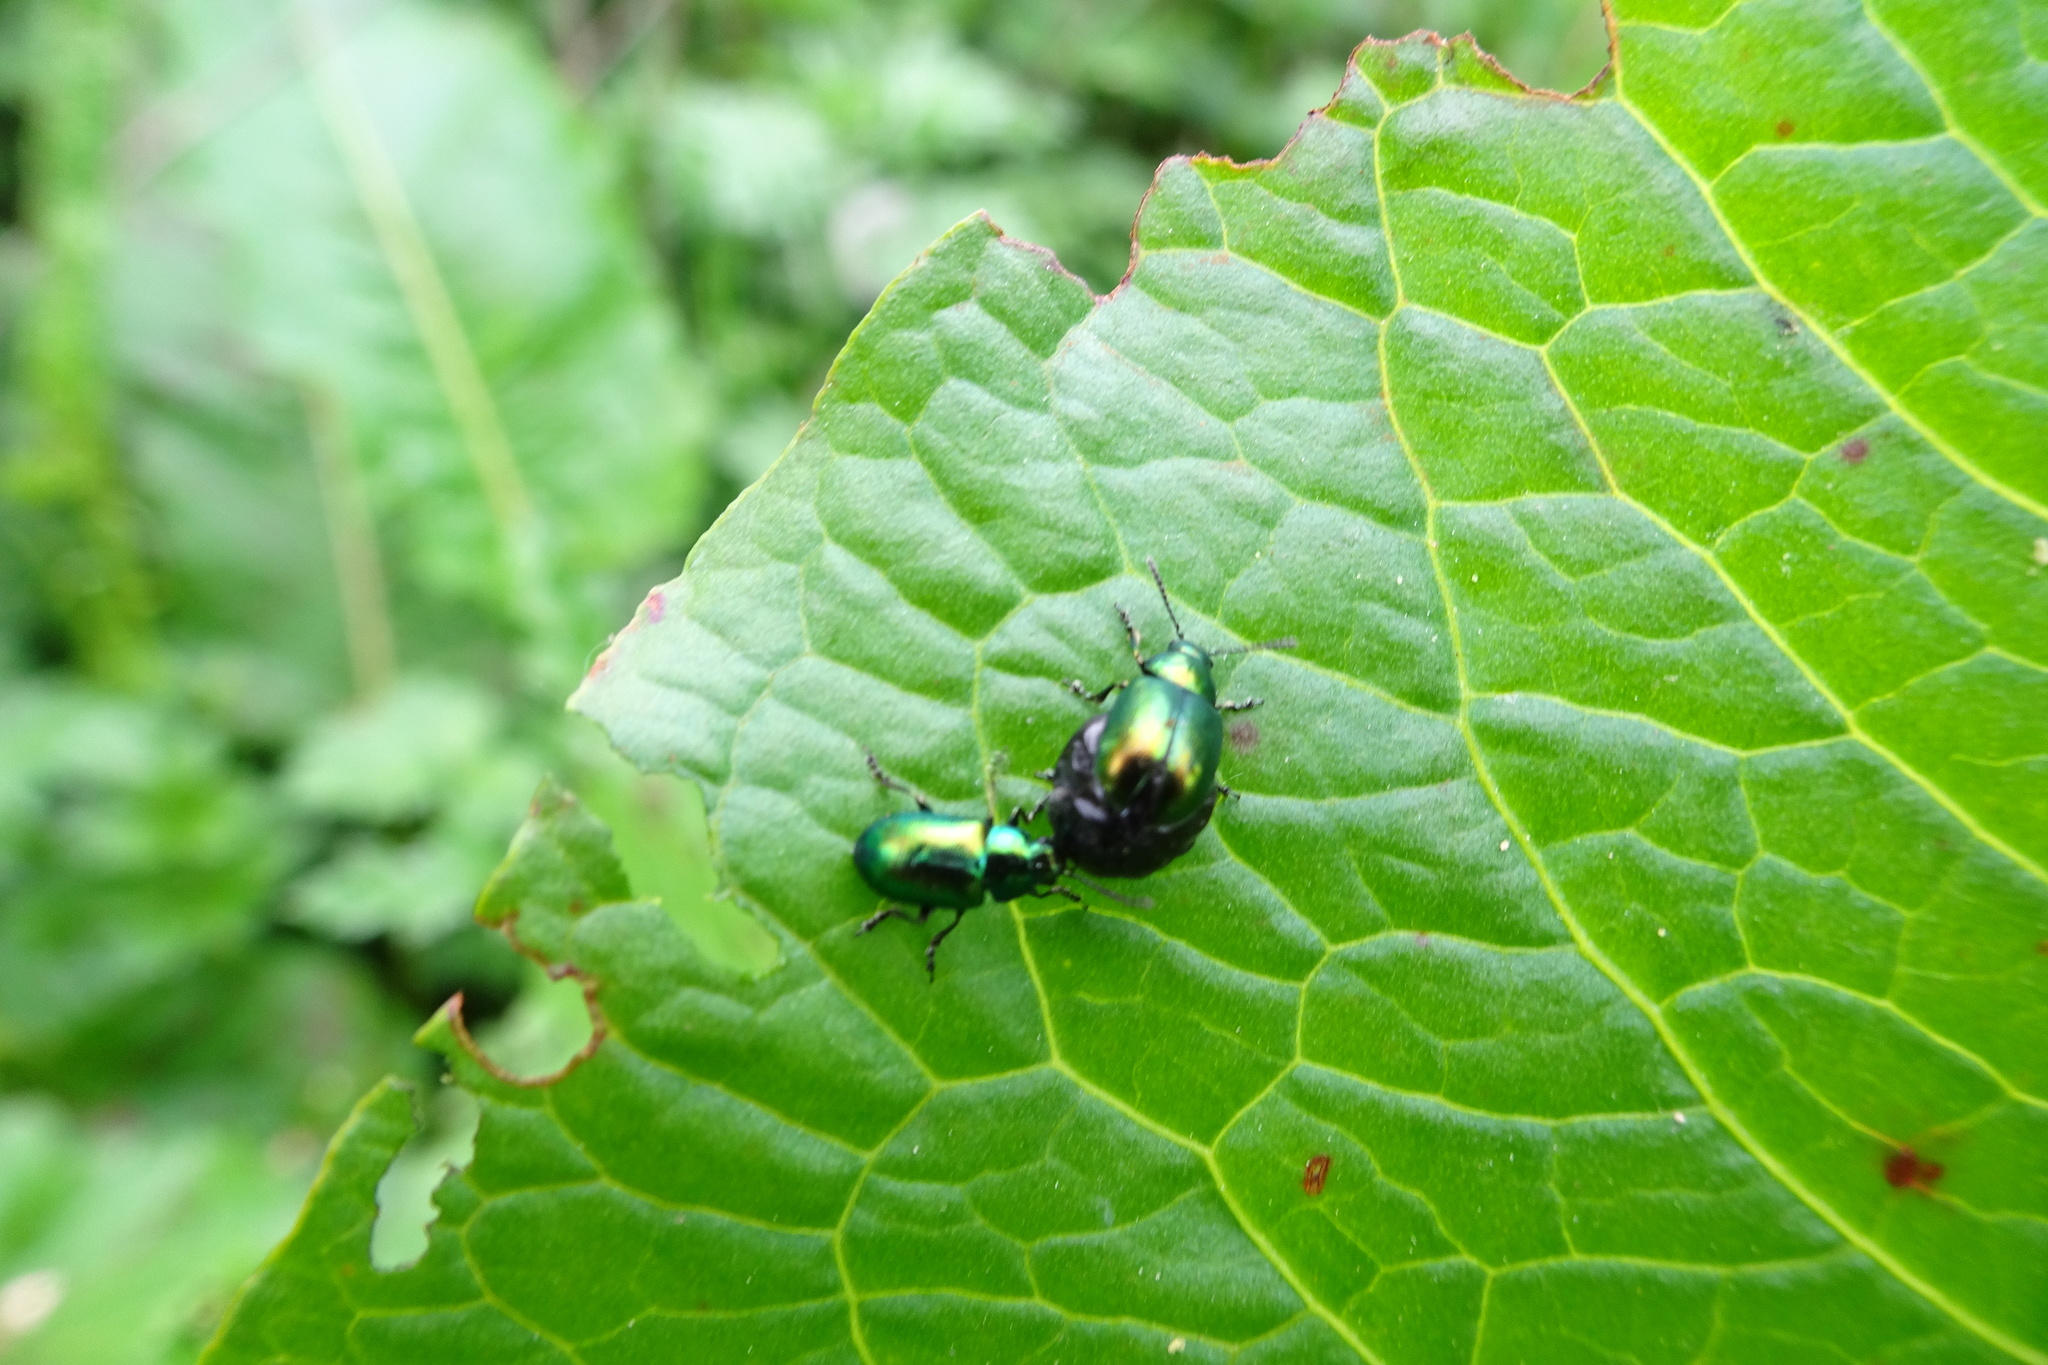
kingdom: Animalia
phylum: Arthropoda
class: Insecta
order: Coleoptera
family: Chrysomelidae
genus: Gastrophysa
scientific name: Gastrophysa viridula
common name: Green dock beetle
